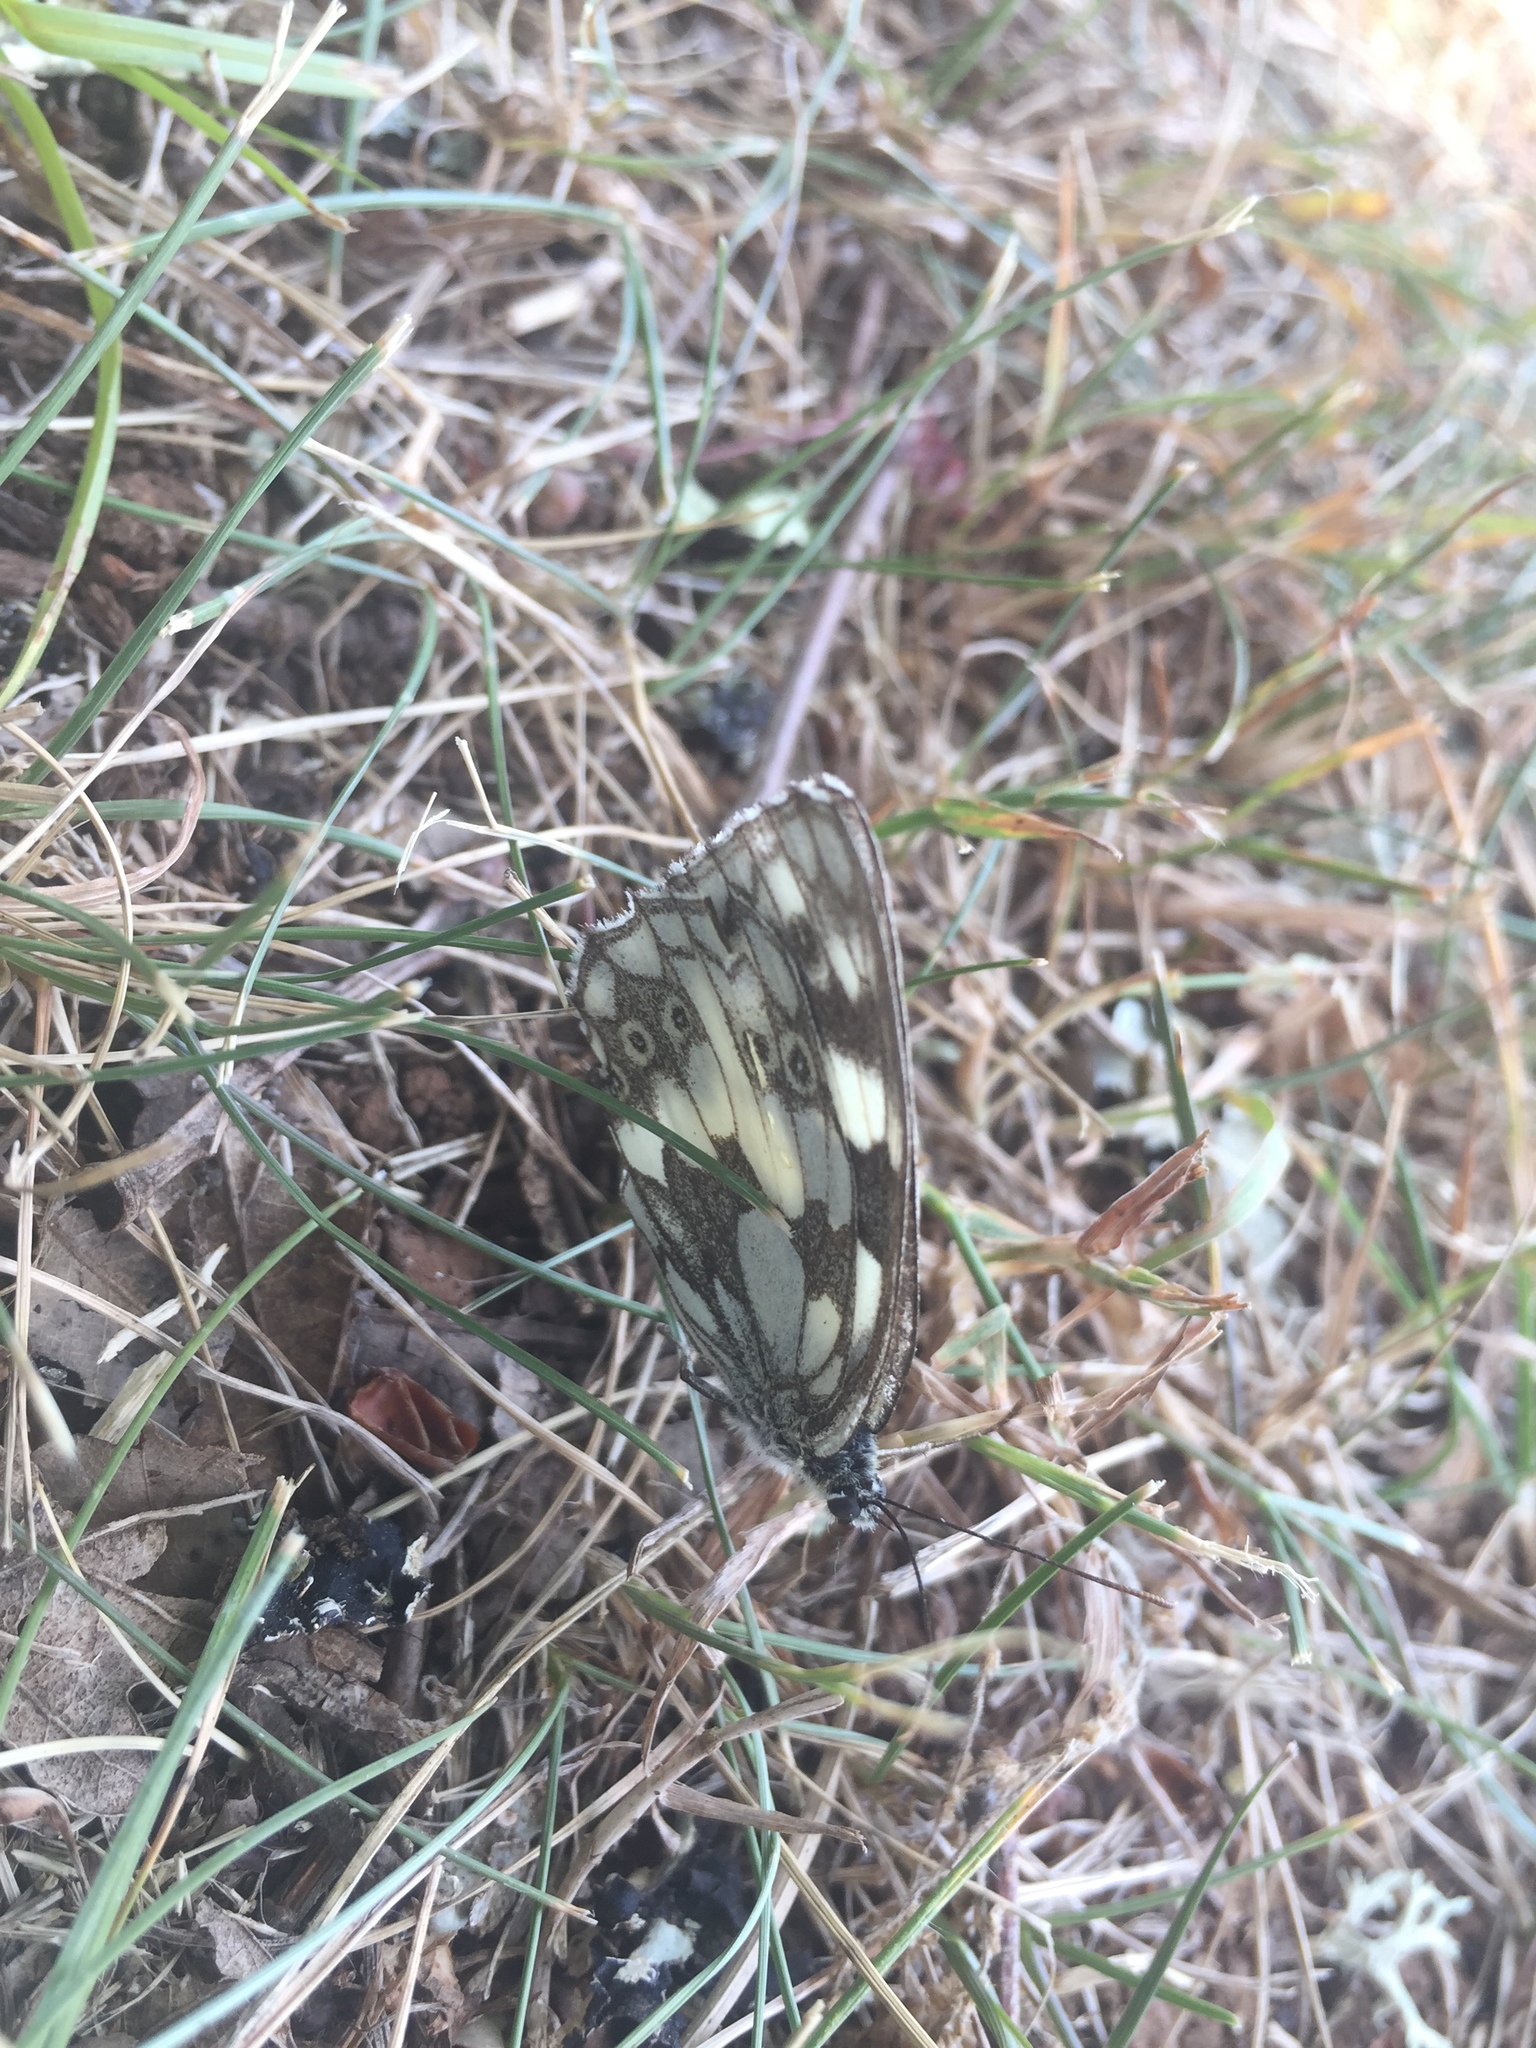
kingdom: Animalia
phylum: Arthropoda
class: Insecta
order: Lepidoptera
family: Nymphalidae
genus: Melanargia
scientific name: Melanargia galathea
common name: Marbled white
